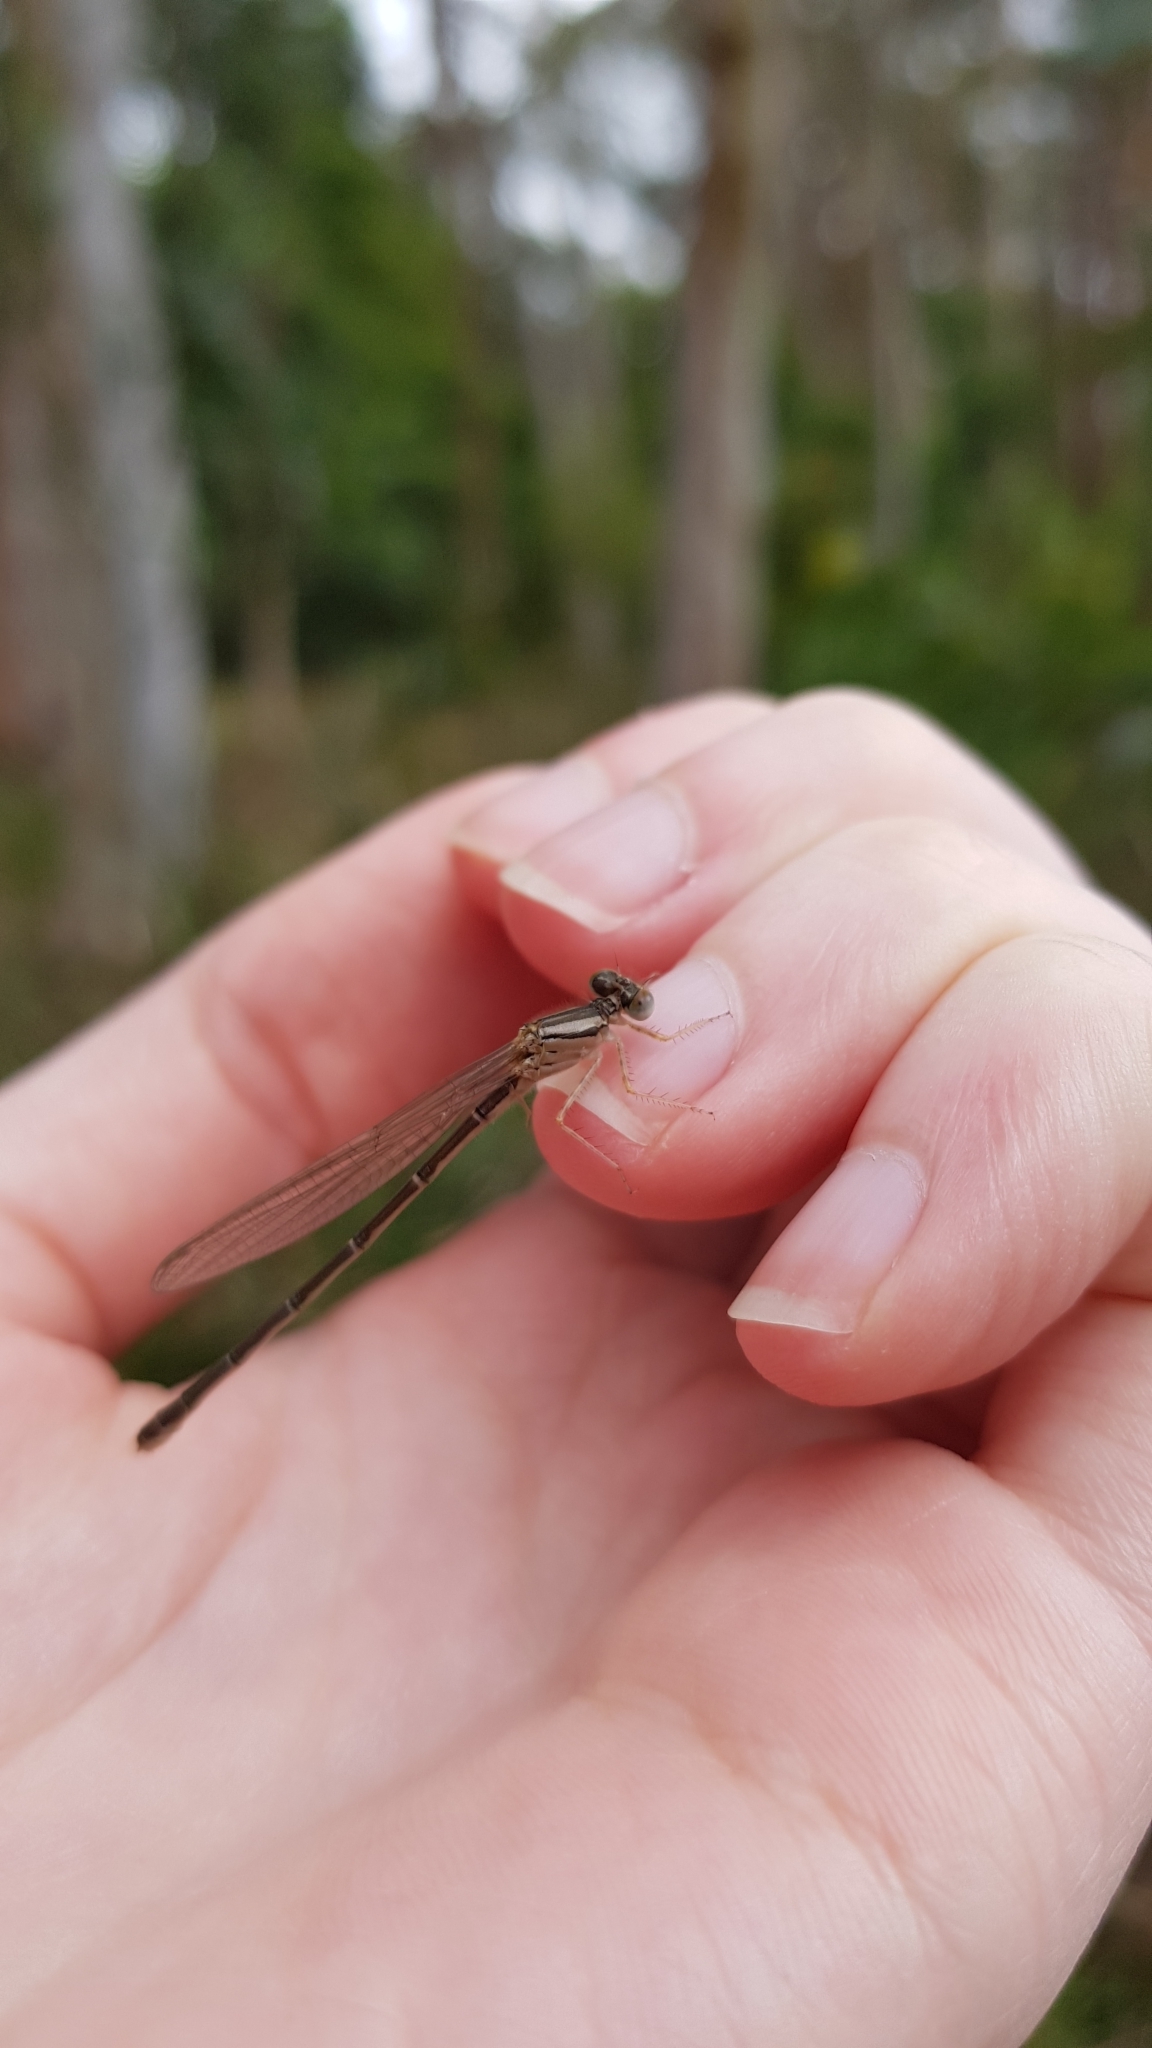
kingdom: Animalia
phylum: Arthropoda
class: Insecta
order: Odonata
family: Coenagrionidae
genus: Xanthagrion
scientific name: Xanthagrion erythroneurum
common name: Red and blue damsel
